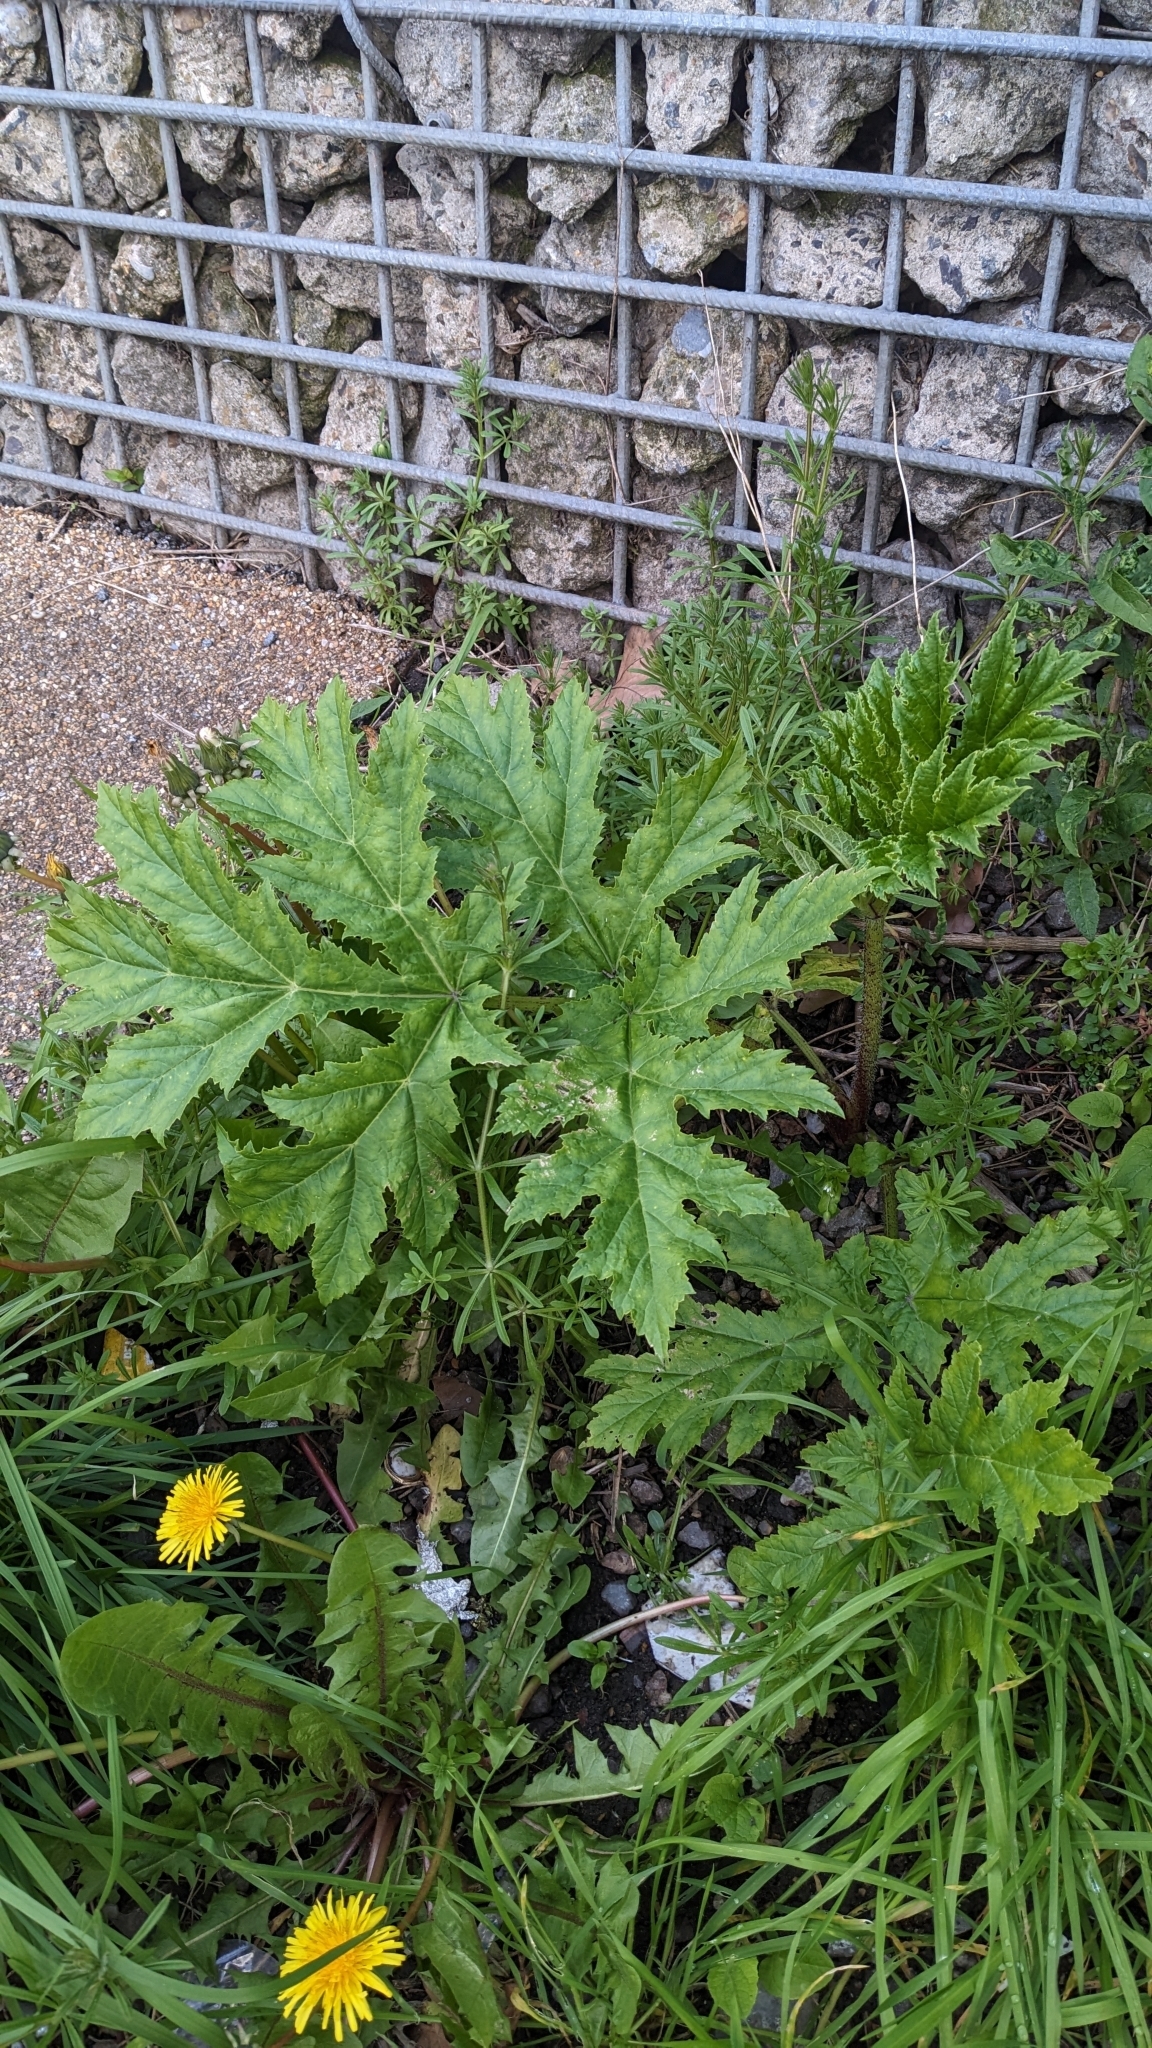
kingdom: Plantae
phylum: Tracheophyta
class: Magnoliopsida
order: Apiales
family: Apiaceae
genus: Heracleum
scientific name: Heracleum mantegazzianum
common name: Giant hogweed
